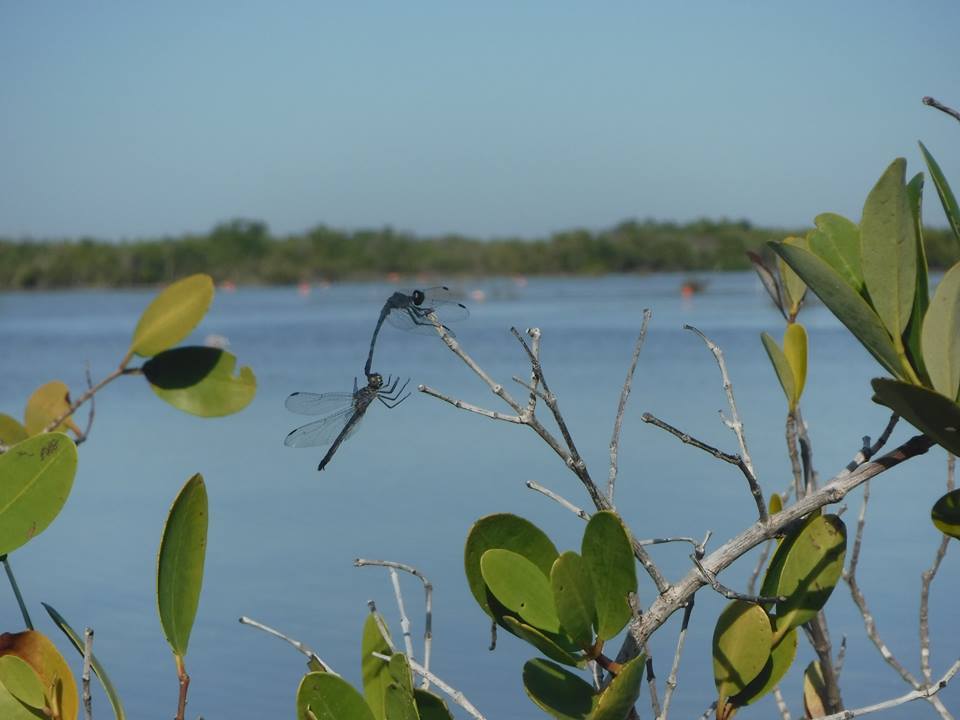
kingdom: Animalia
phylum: Arthropoda
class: Insecta
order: Odonata
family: Libellulidae
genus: Erythrodiplax
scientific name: Erythrodiplax berenice
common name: Seaside dragonlet
